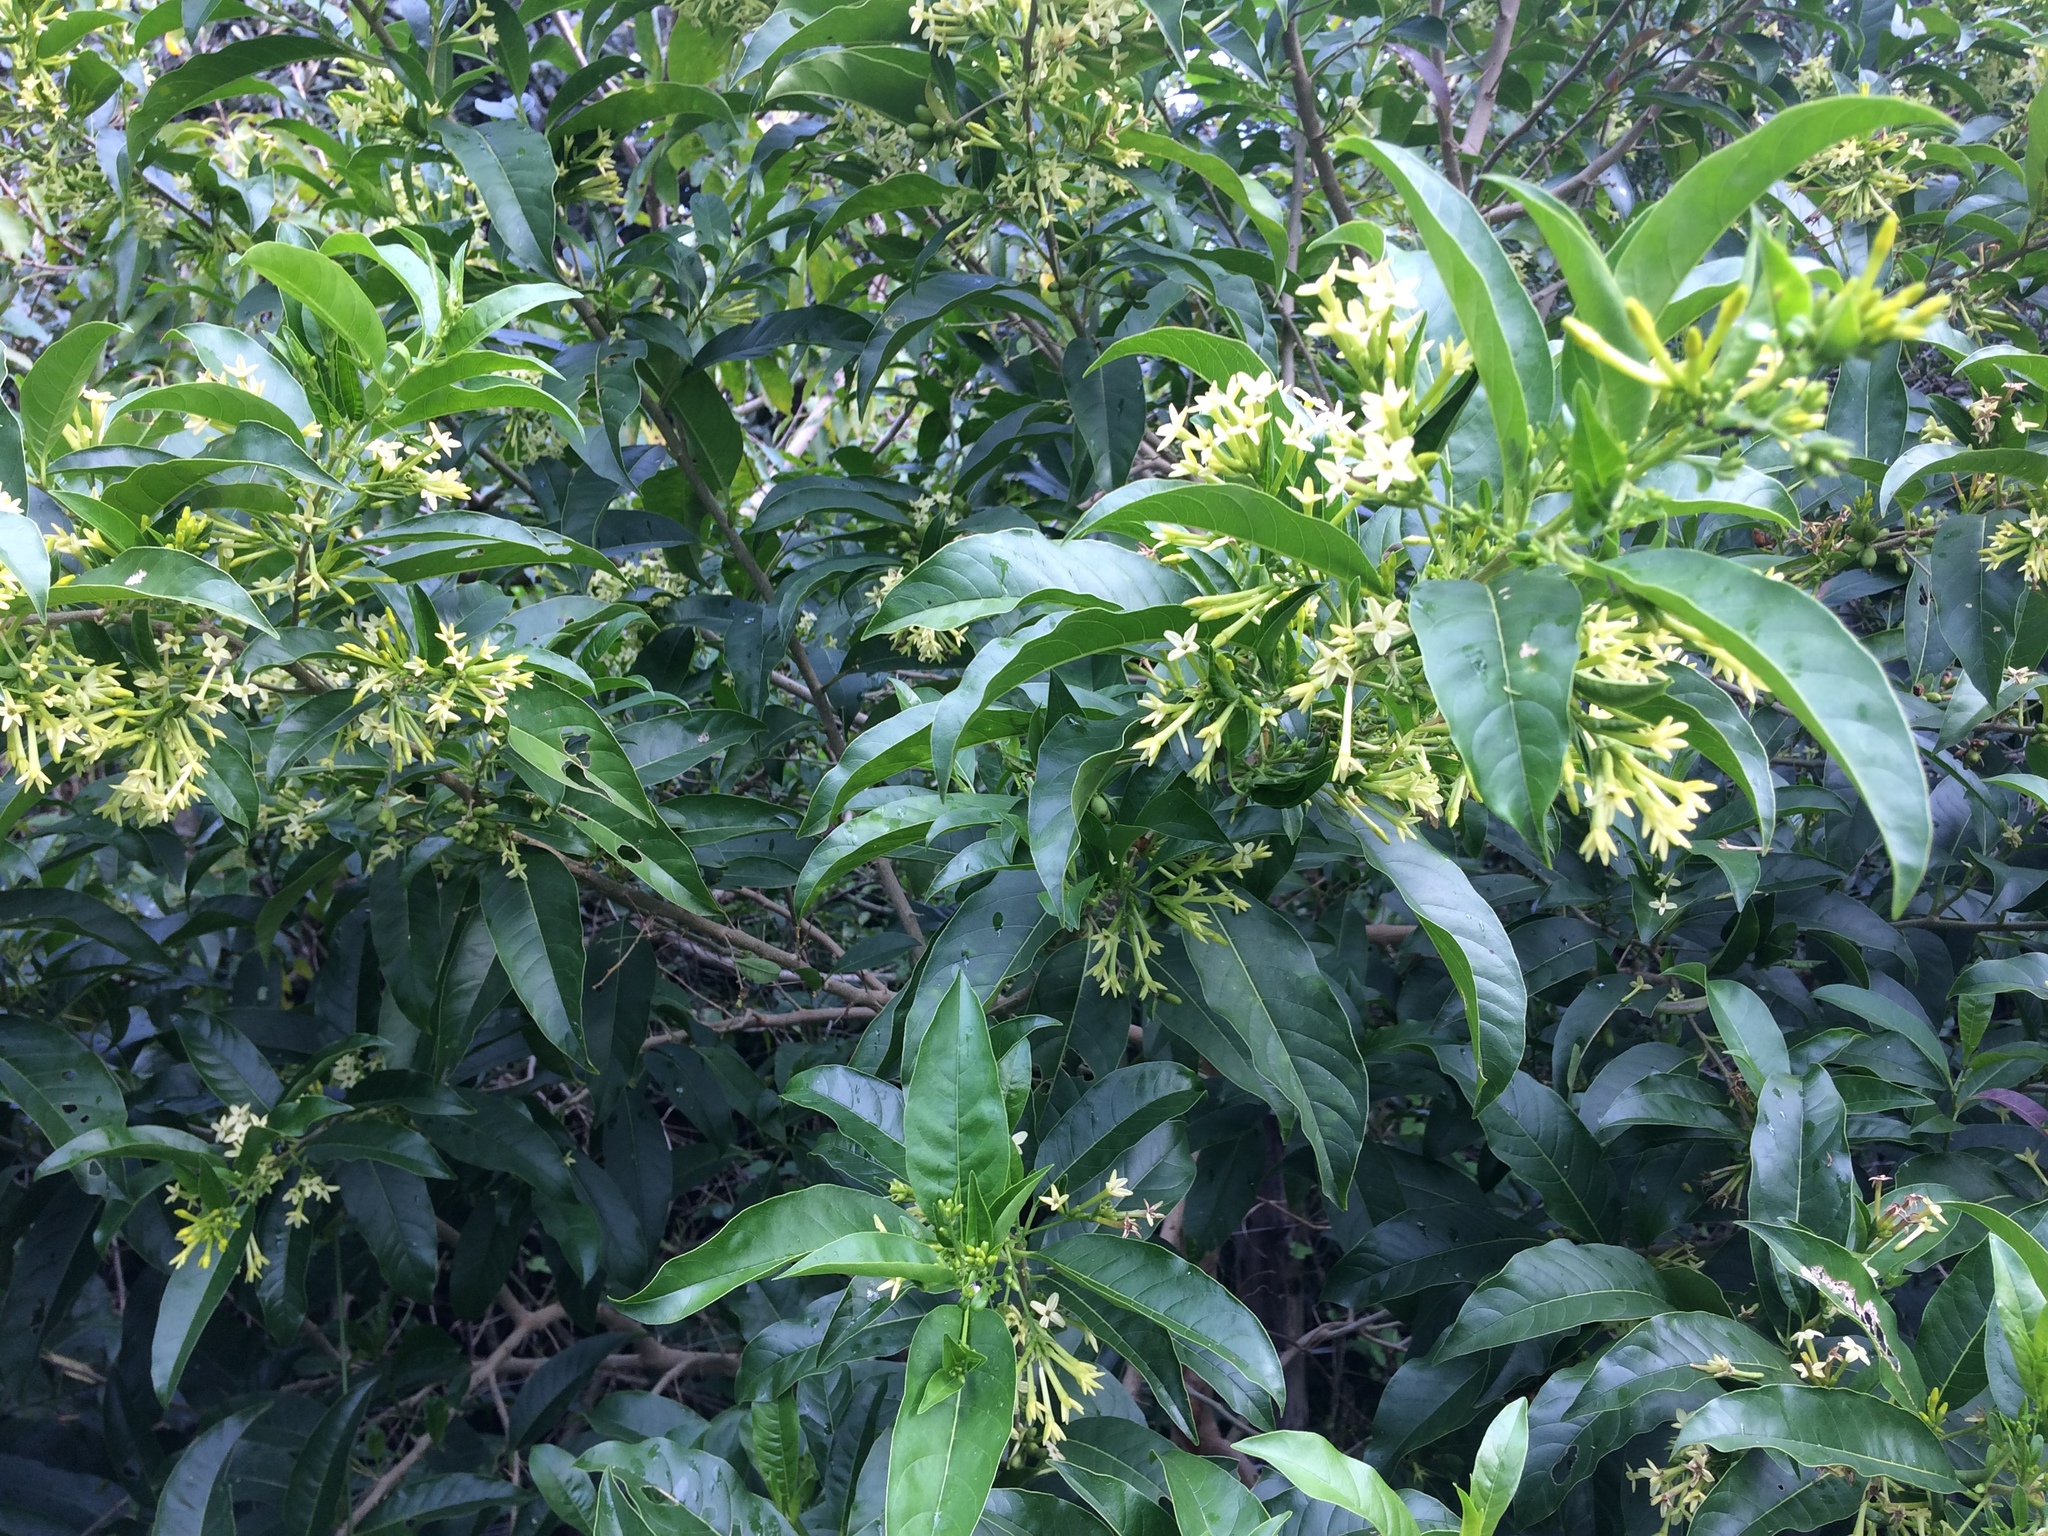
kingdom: Plantae
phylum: Tracheophyta
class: Magnoliopsida
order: Solanales
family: Solanaceae
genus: Cestrum
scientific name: Cestrum laevigatum
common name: Inkberry
